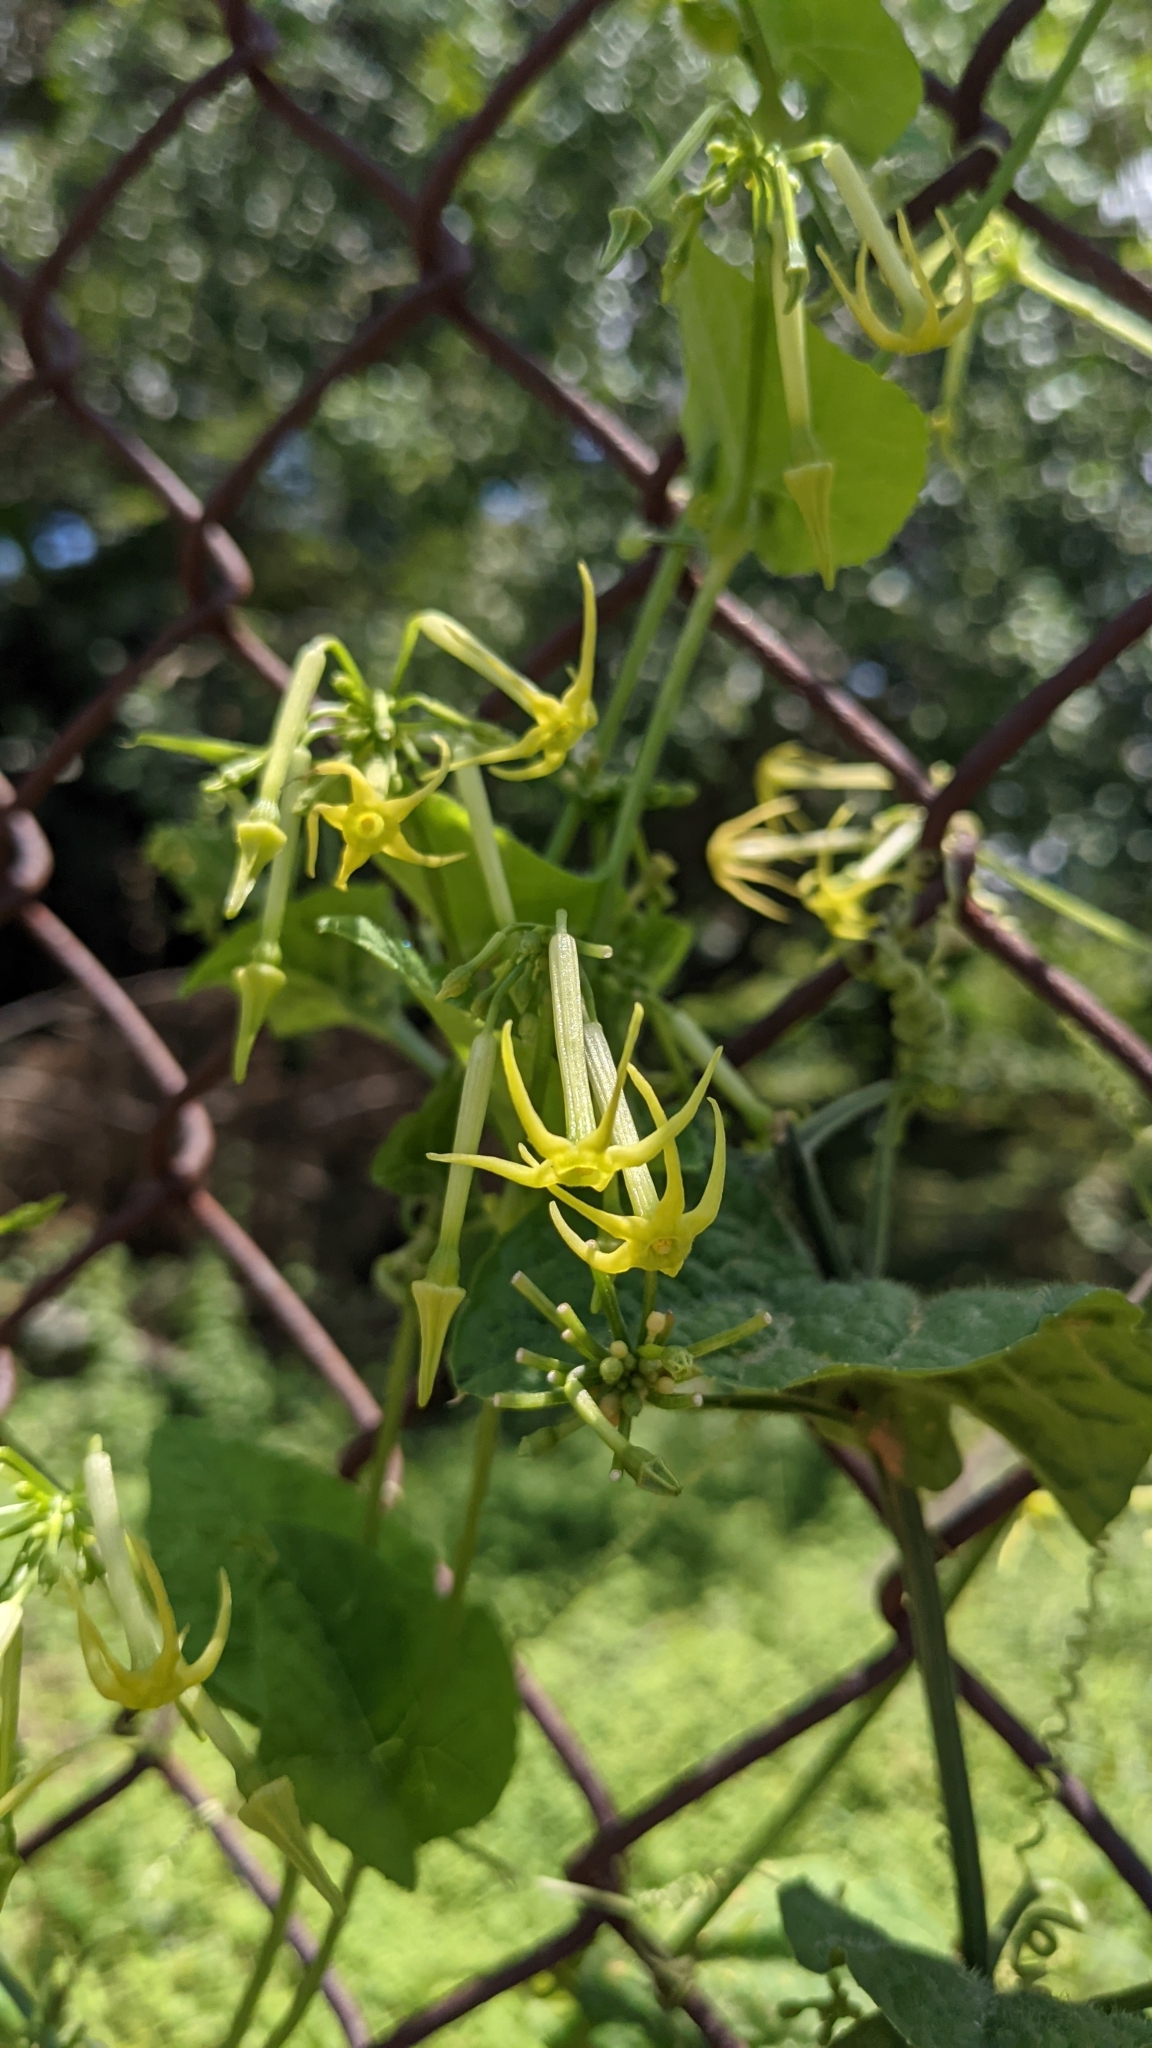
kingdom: Plantae
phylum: Tracheophyta
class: Magnoliopsida
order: Cucurbitales
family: Cucurbitaceae
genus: Cyclanthera
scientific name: Cyclanthera carthagenensis
